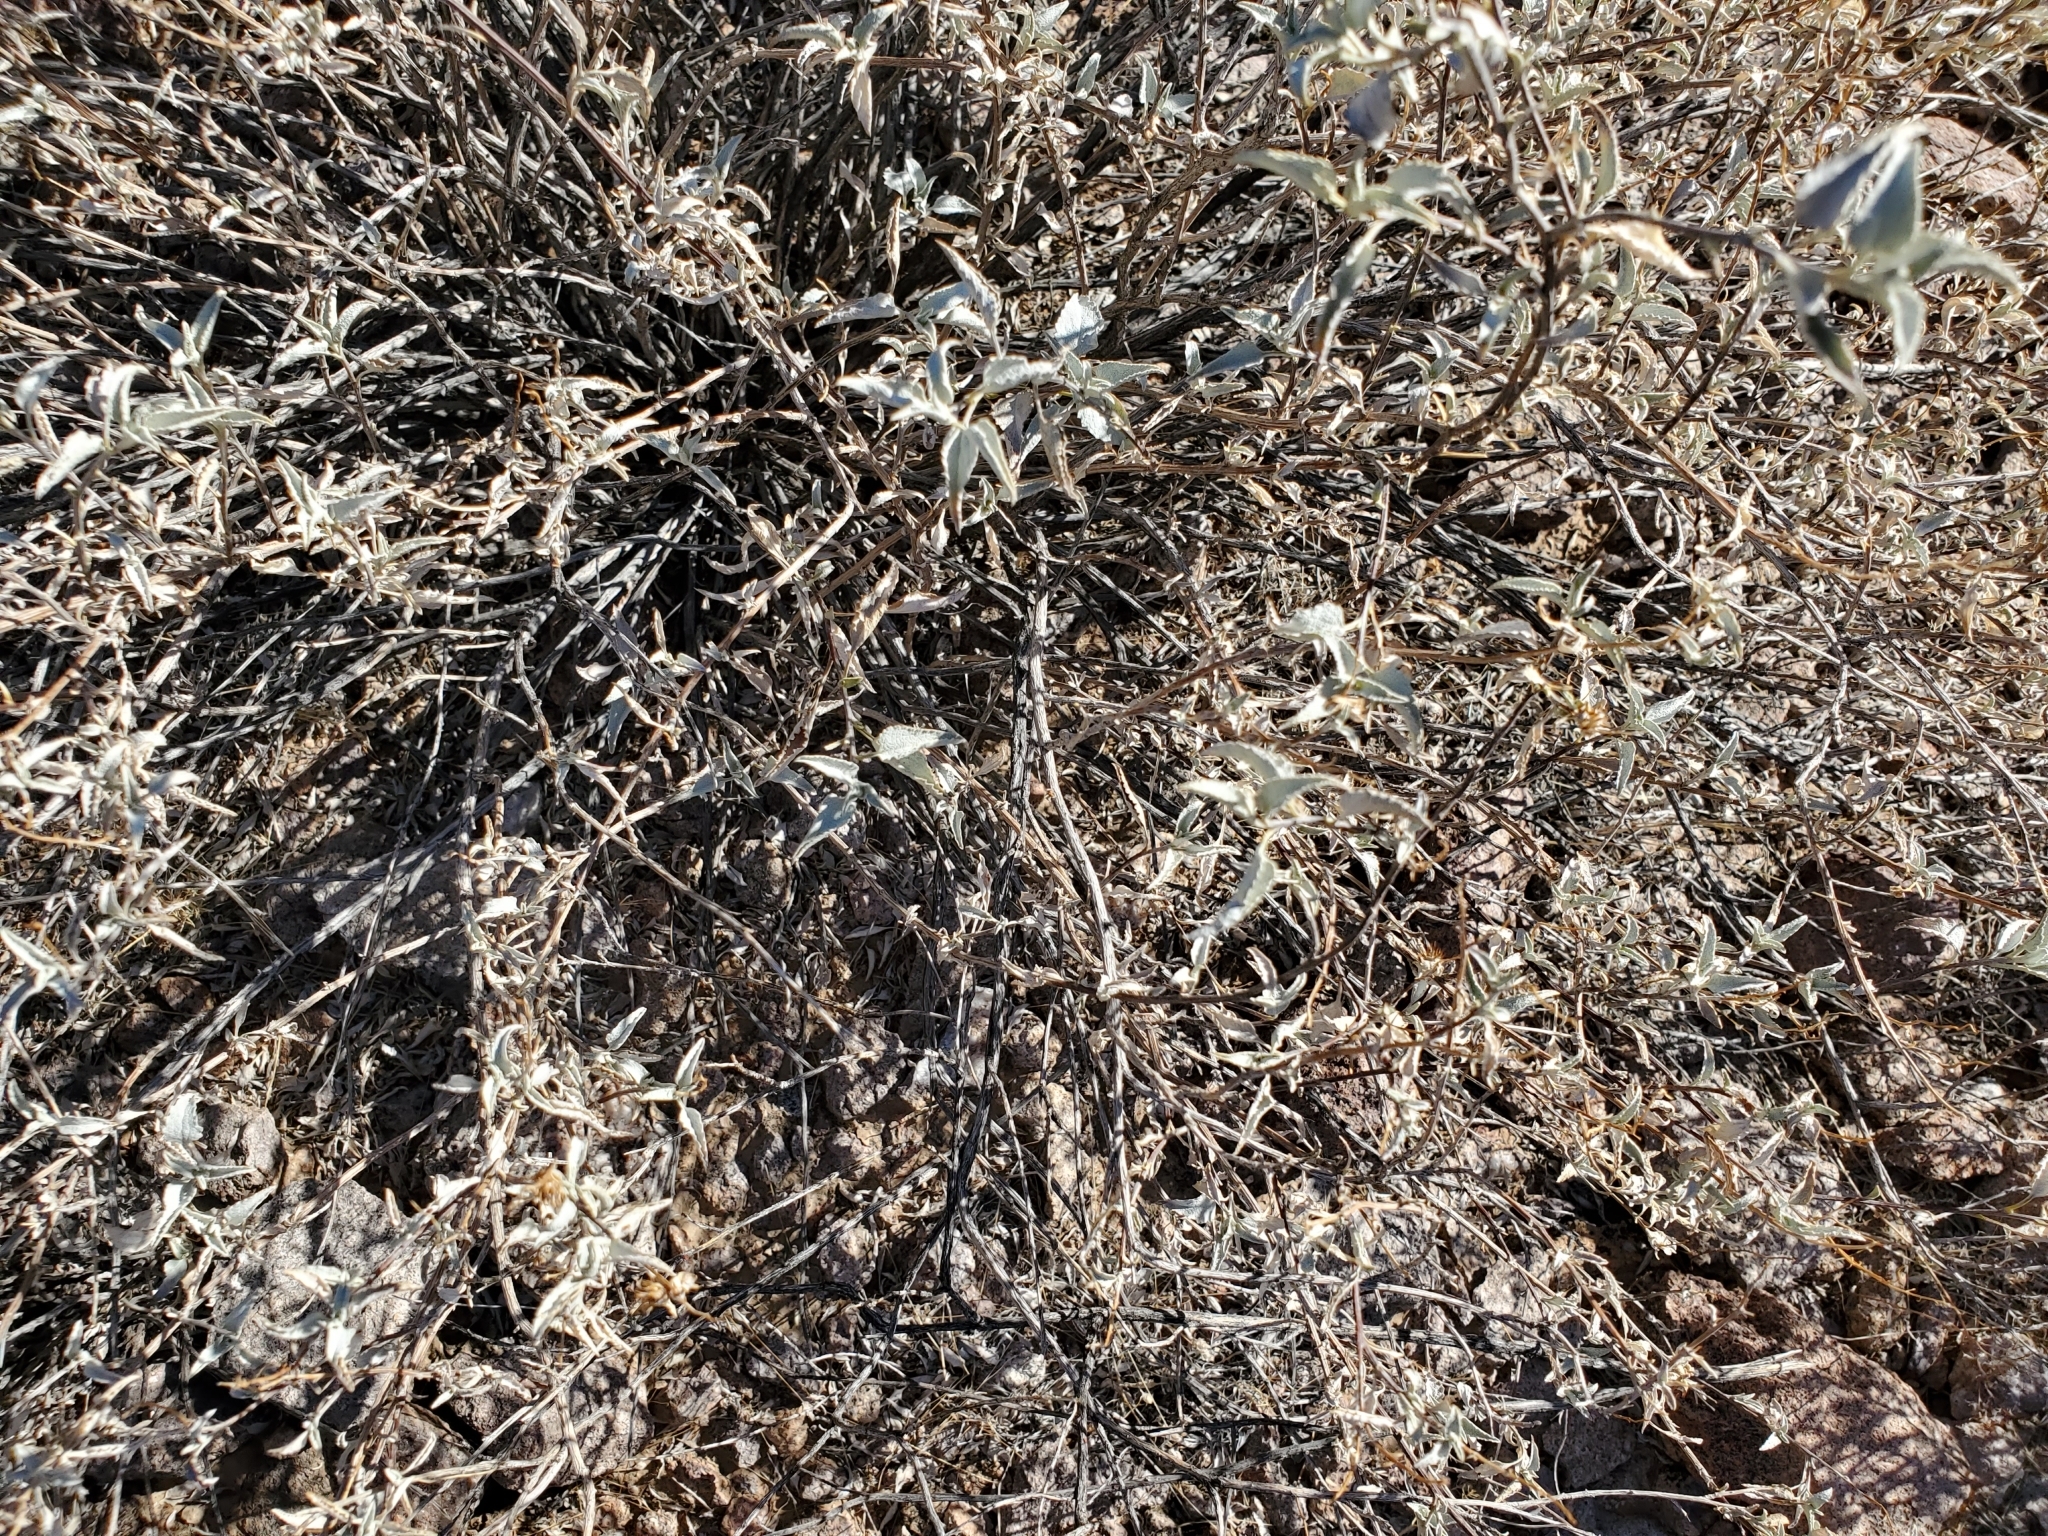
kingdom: Plantae
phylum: Tracheophyta
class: Magnoliopsida
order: Asterales
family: Asteraceae
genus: Ambrosia
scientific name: Ambrosia deltoidea
